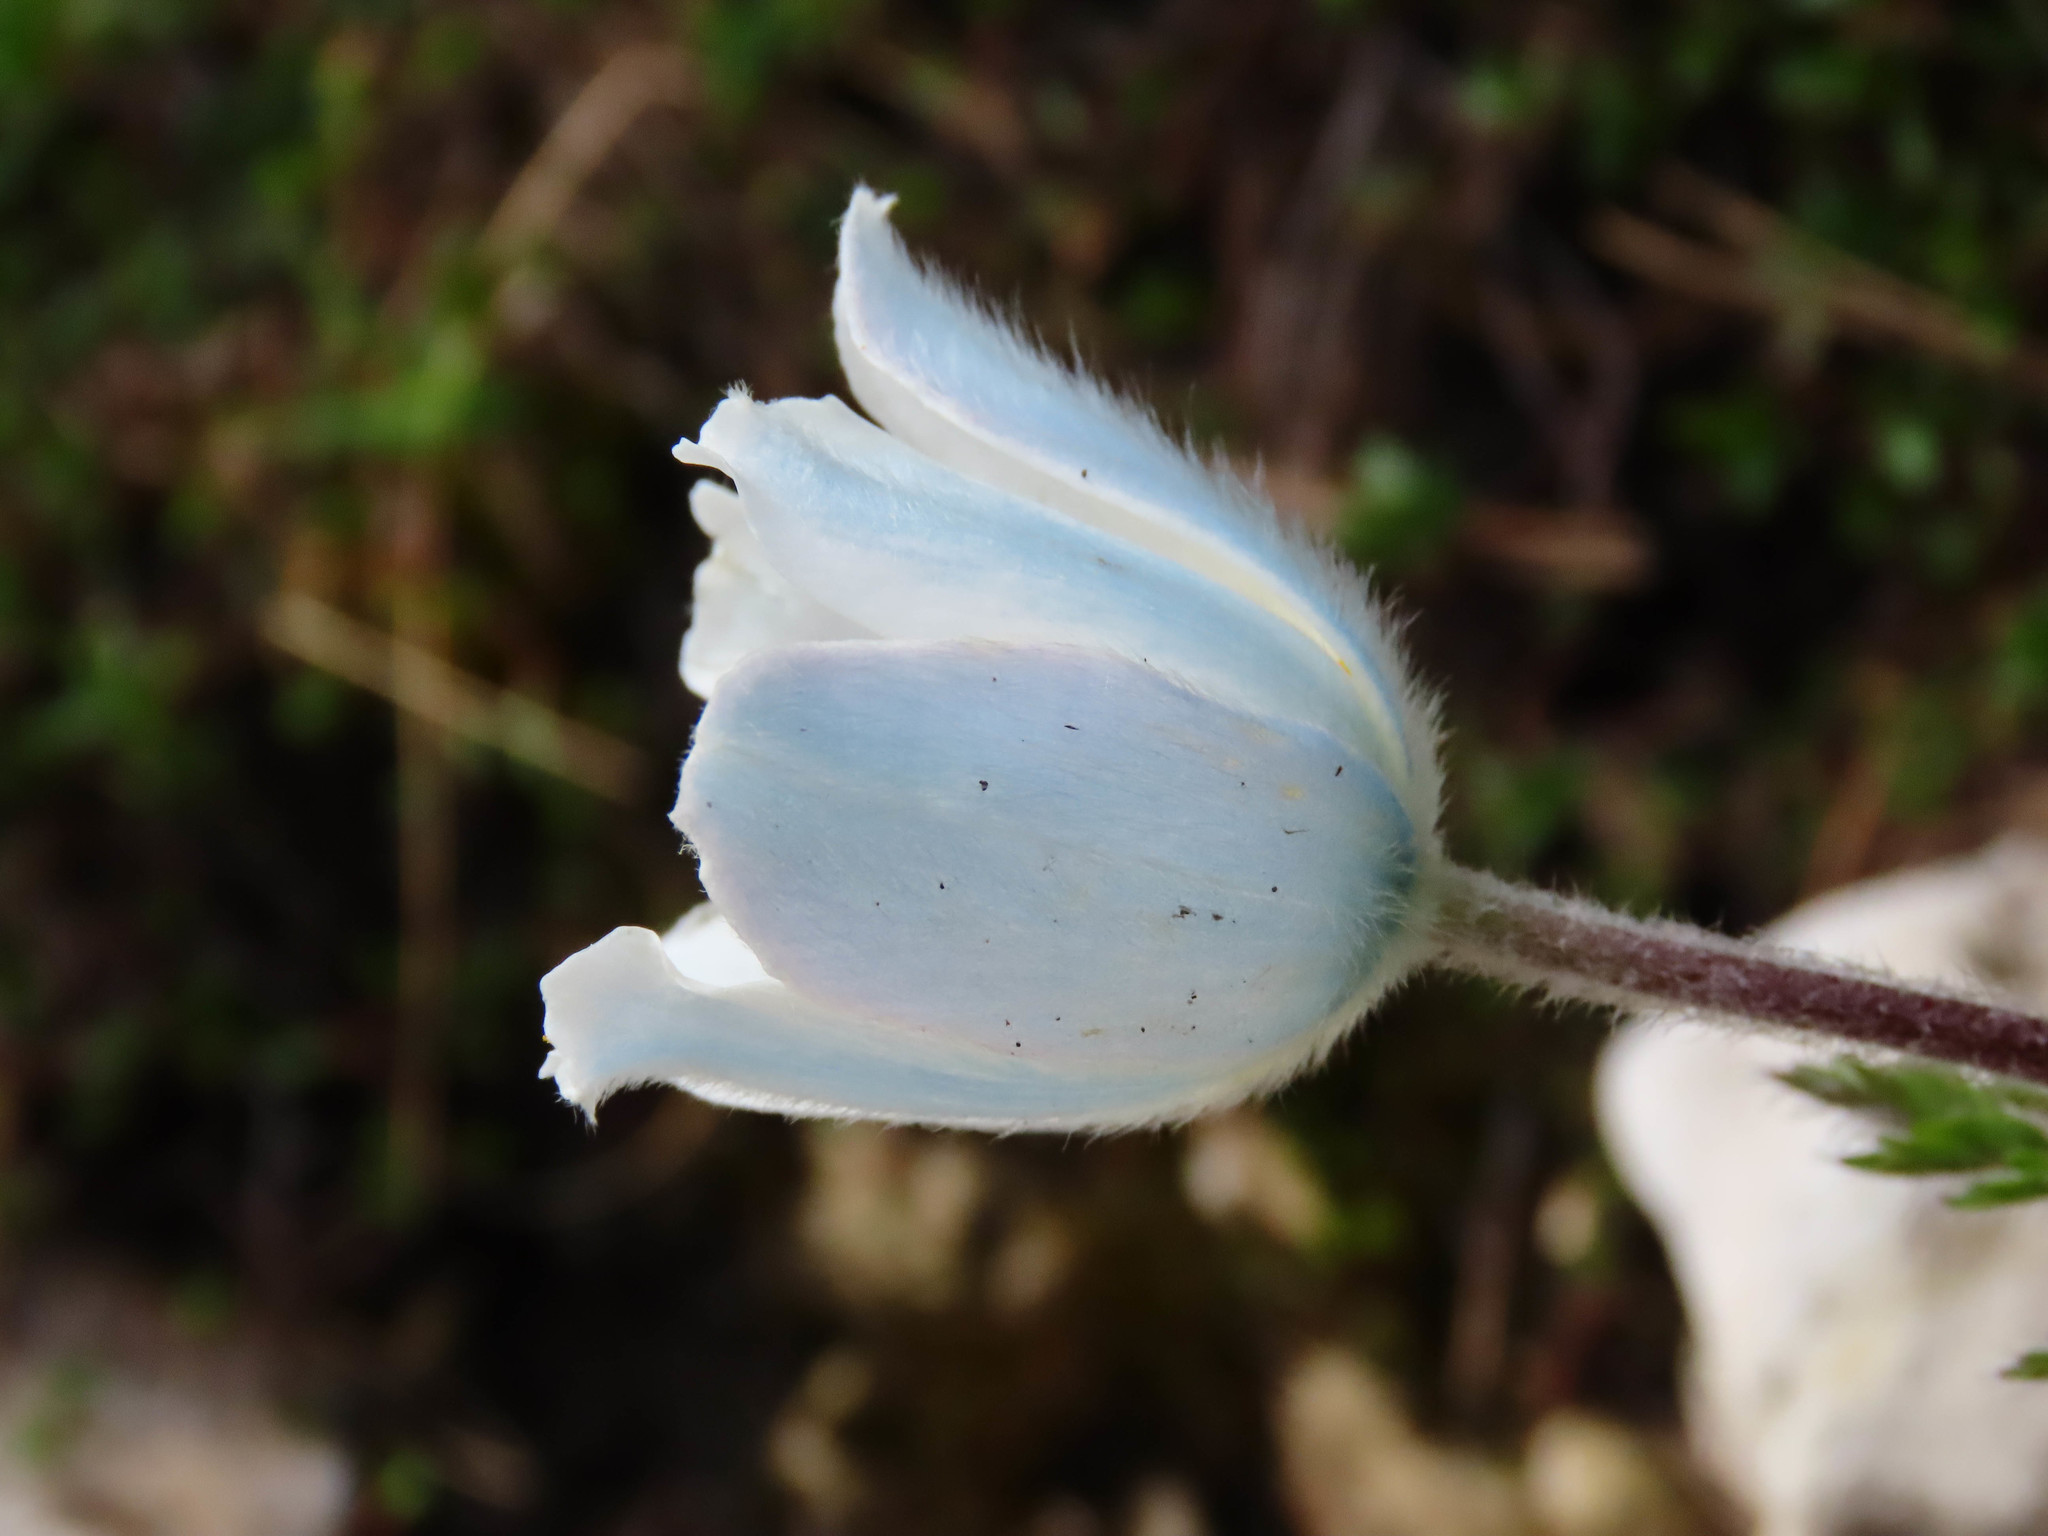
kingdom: Plantae
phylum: Tracheophyta
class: Magnoliopsida
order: Ranunculales
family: Ranunculaceae
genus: Pulsatilla
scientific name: Pulsatilla alpina
